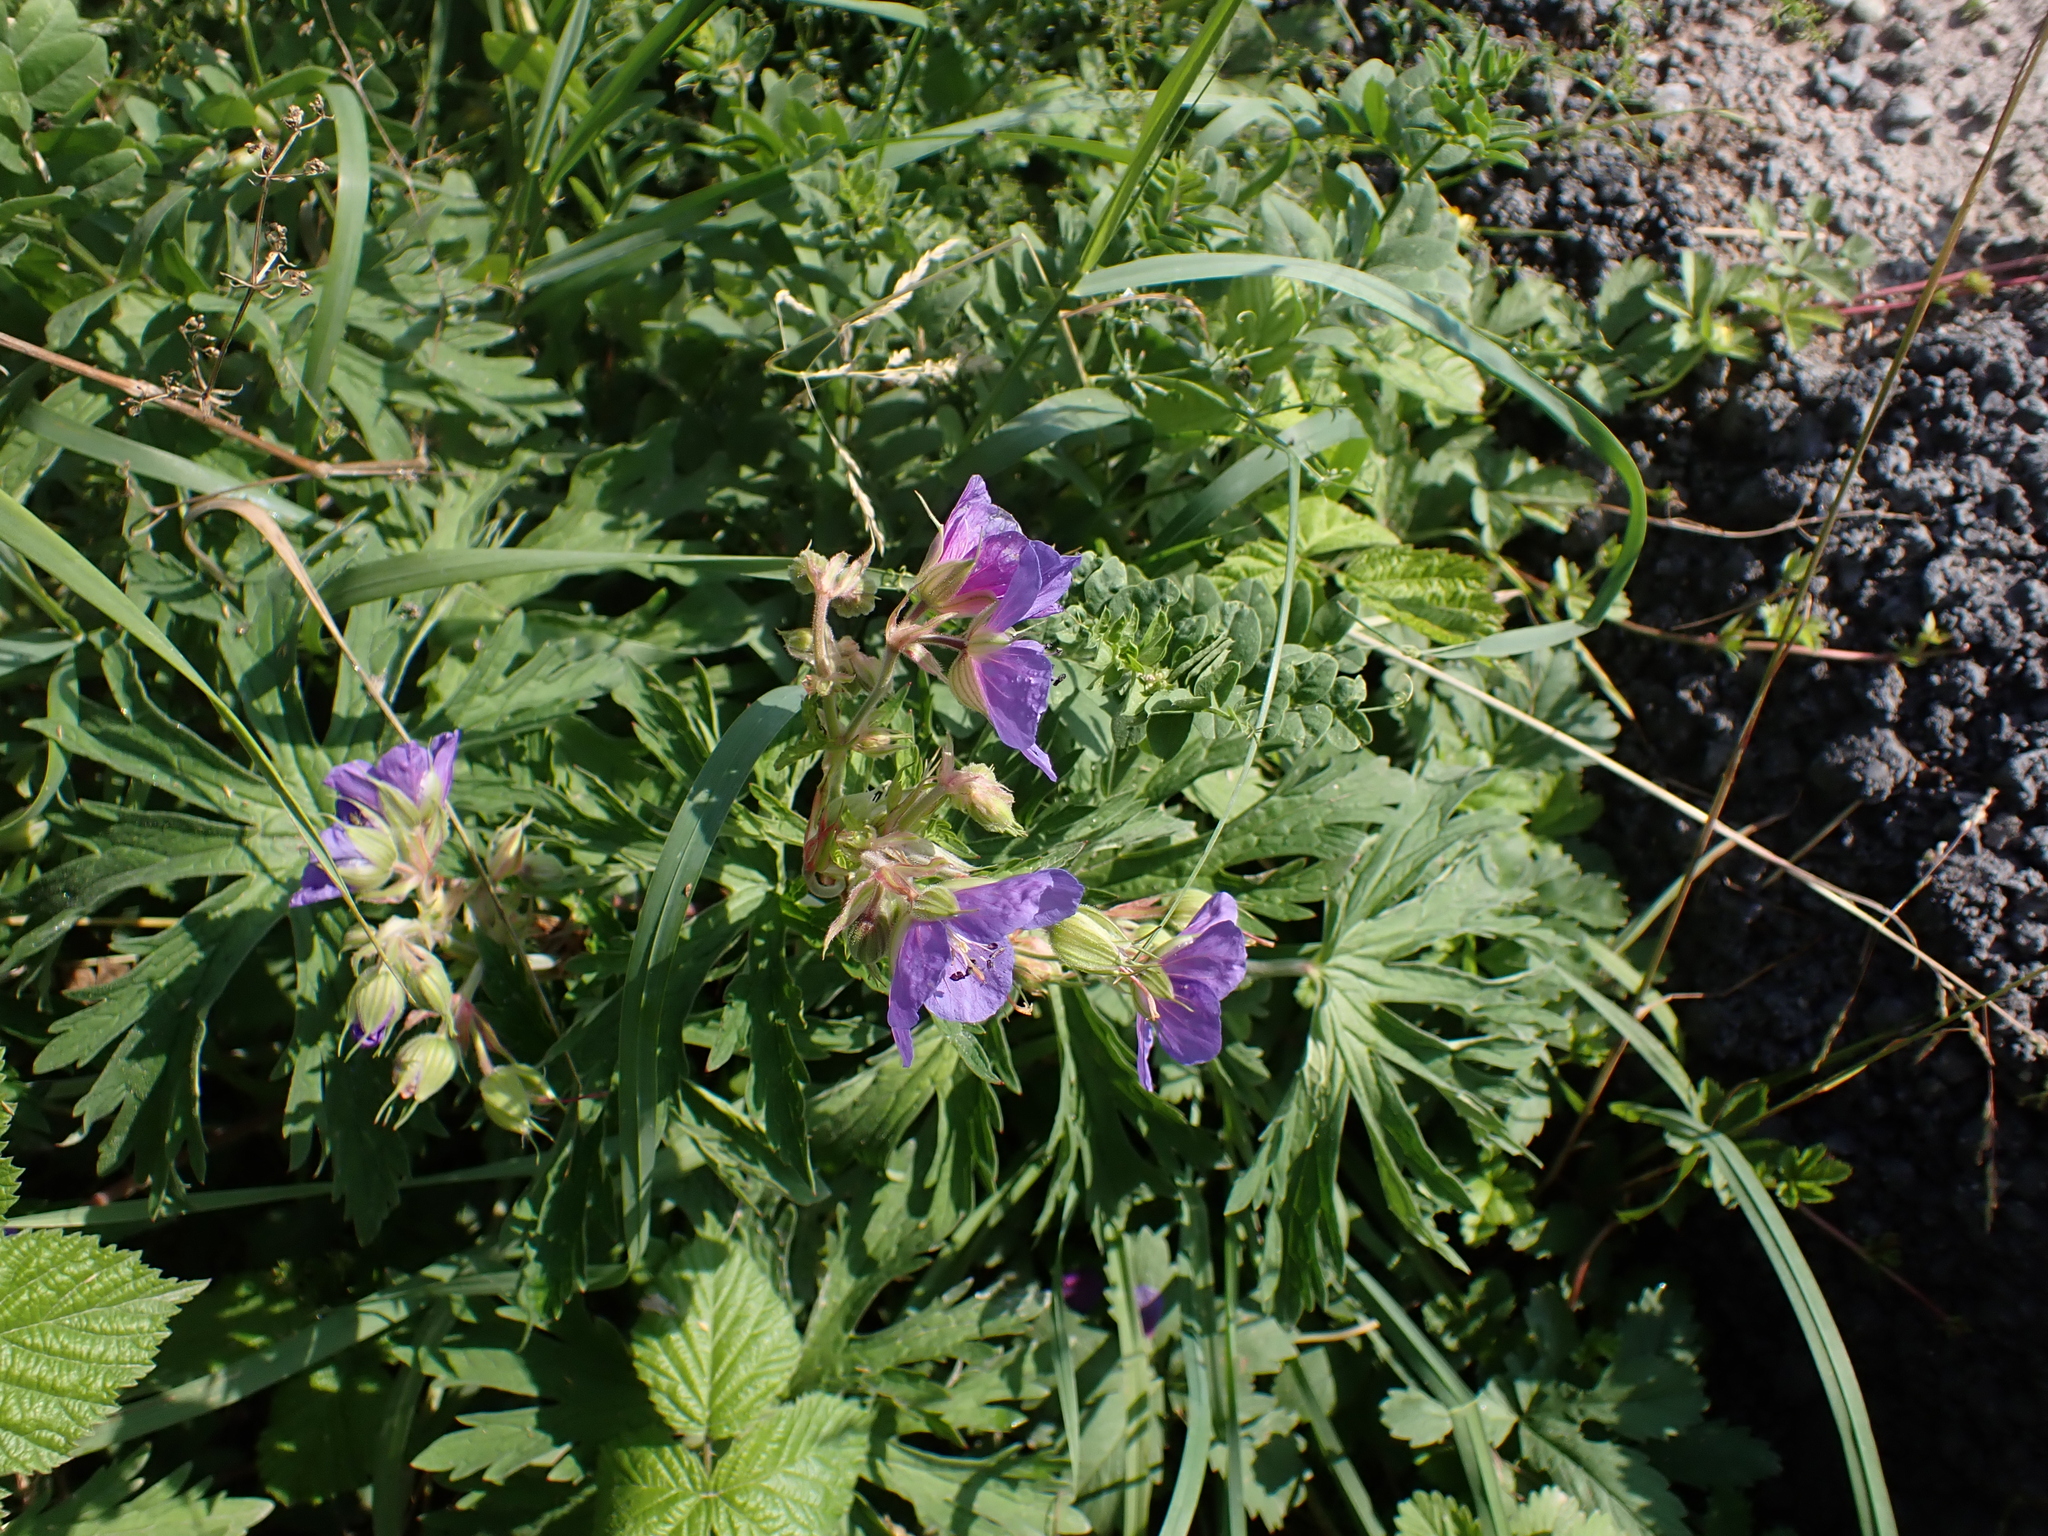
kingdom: Plantae
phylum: Tracheophyta
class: Magnoliopsida
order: Geraniales
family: Geraniaceae
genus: Geranium
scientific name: Geranium pratense
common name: Meadow crane's-bill
